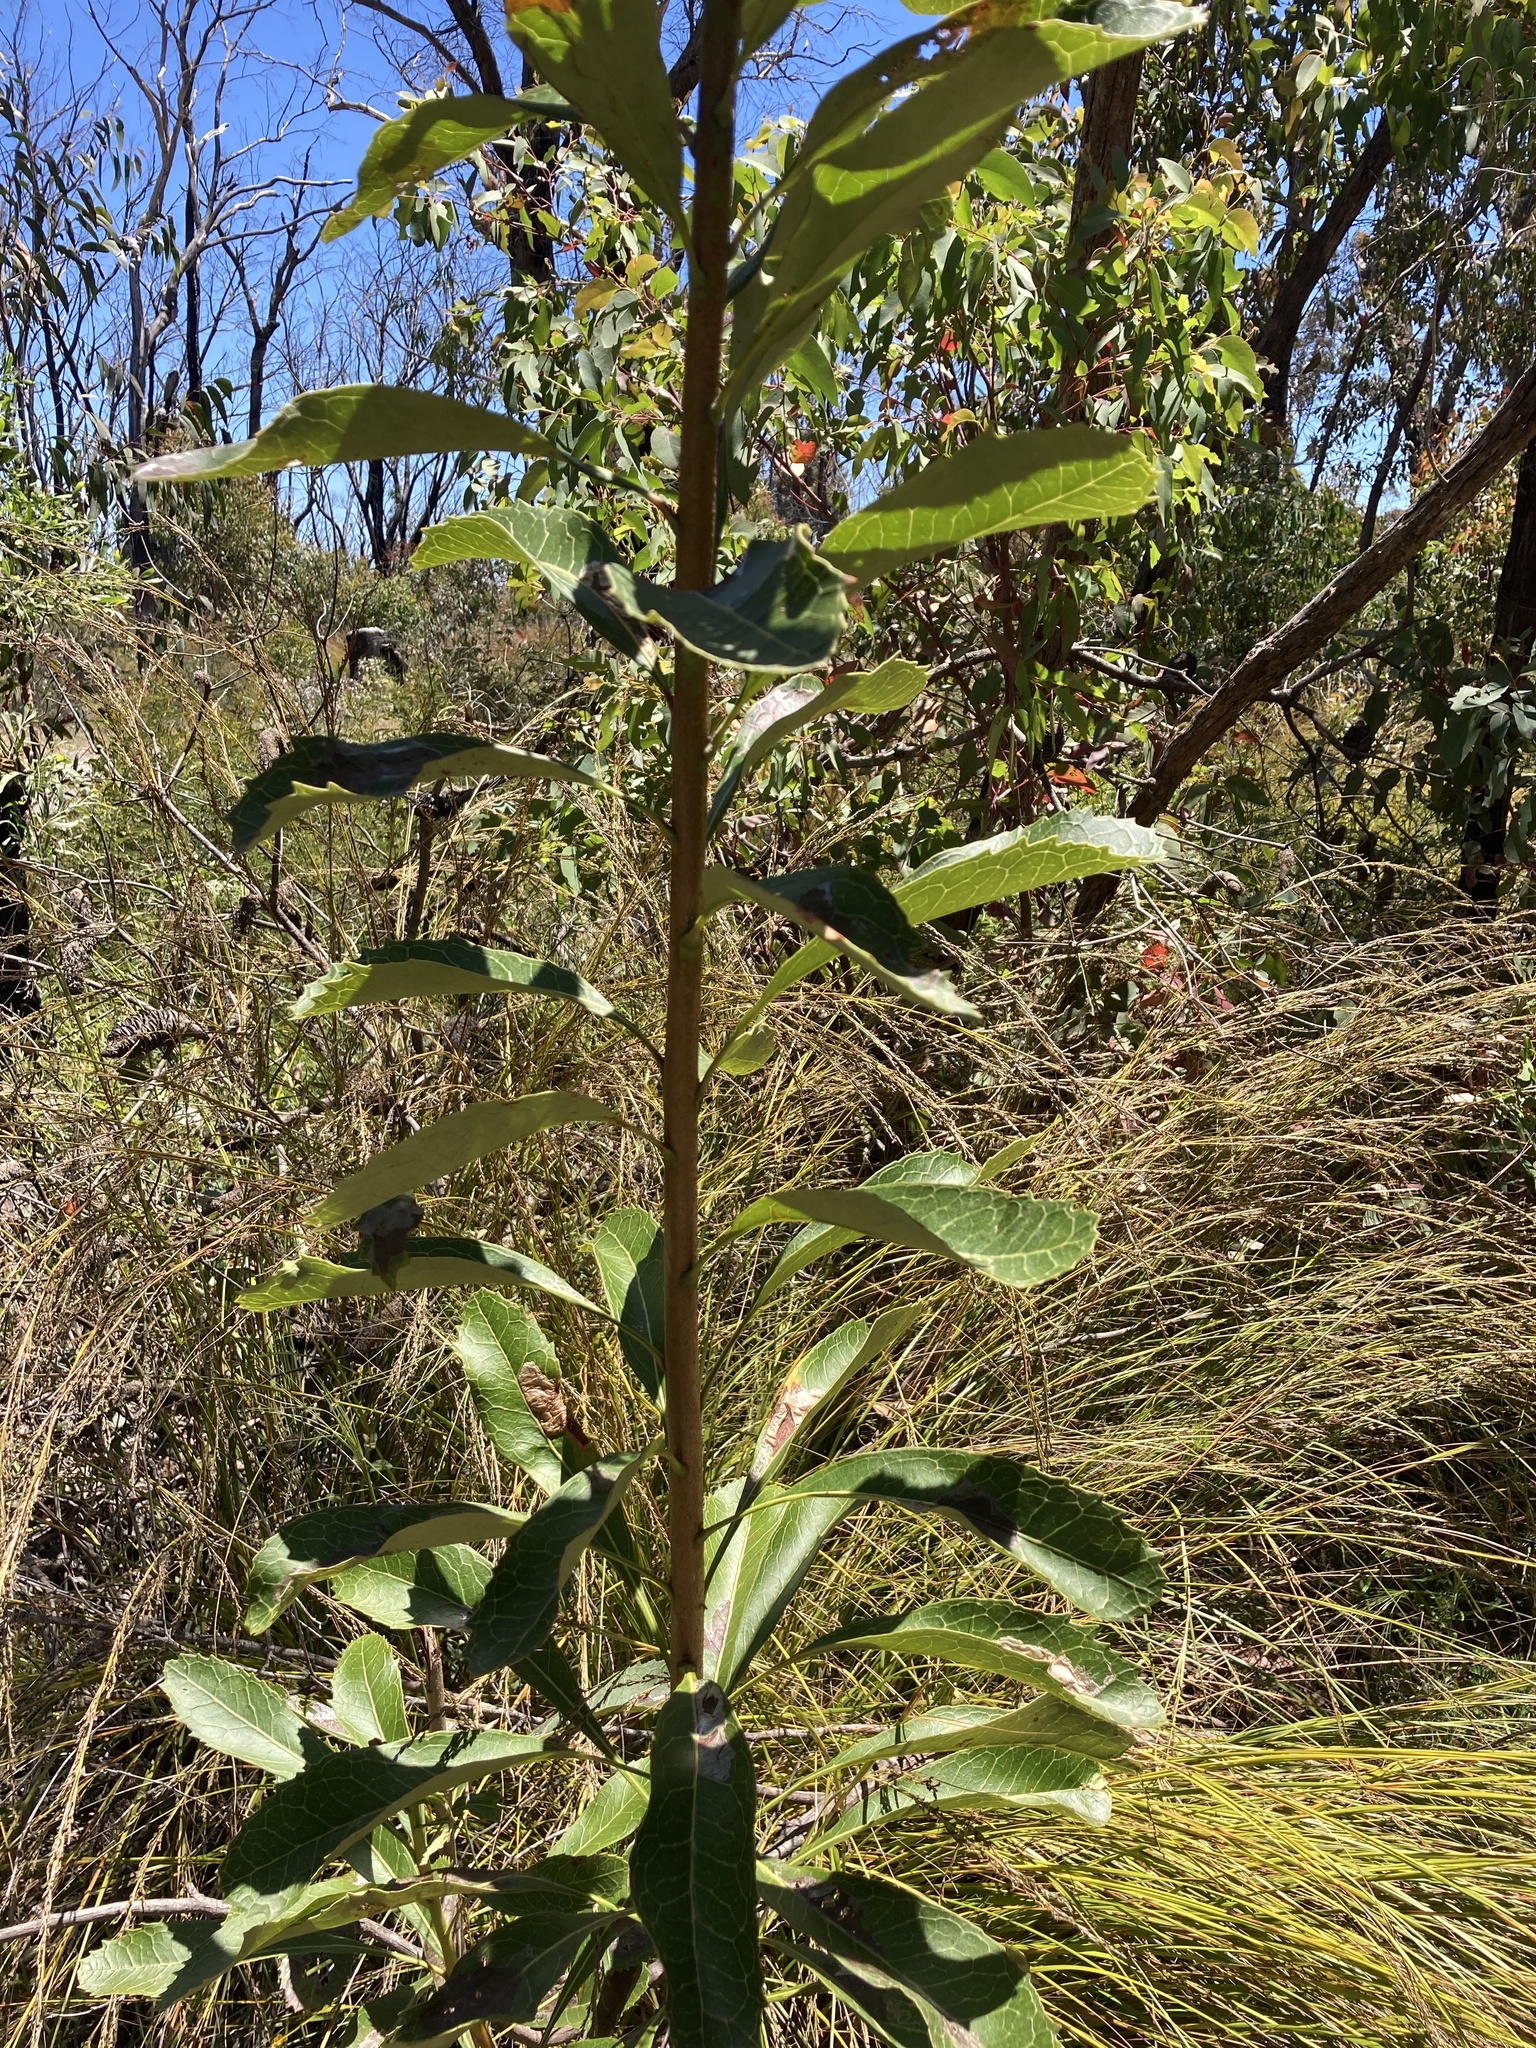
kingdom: Plantae
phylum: Tracheophyta
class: Magnoliopsida
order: Proteales
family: Proteaceae
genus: Telopea
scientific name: Telopea speciosissima
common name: New south wales waratah
